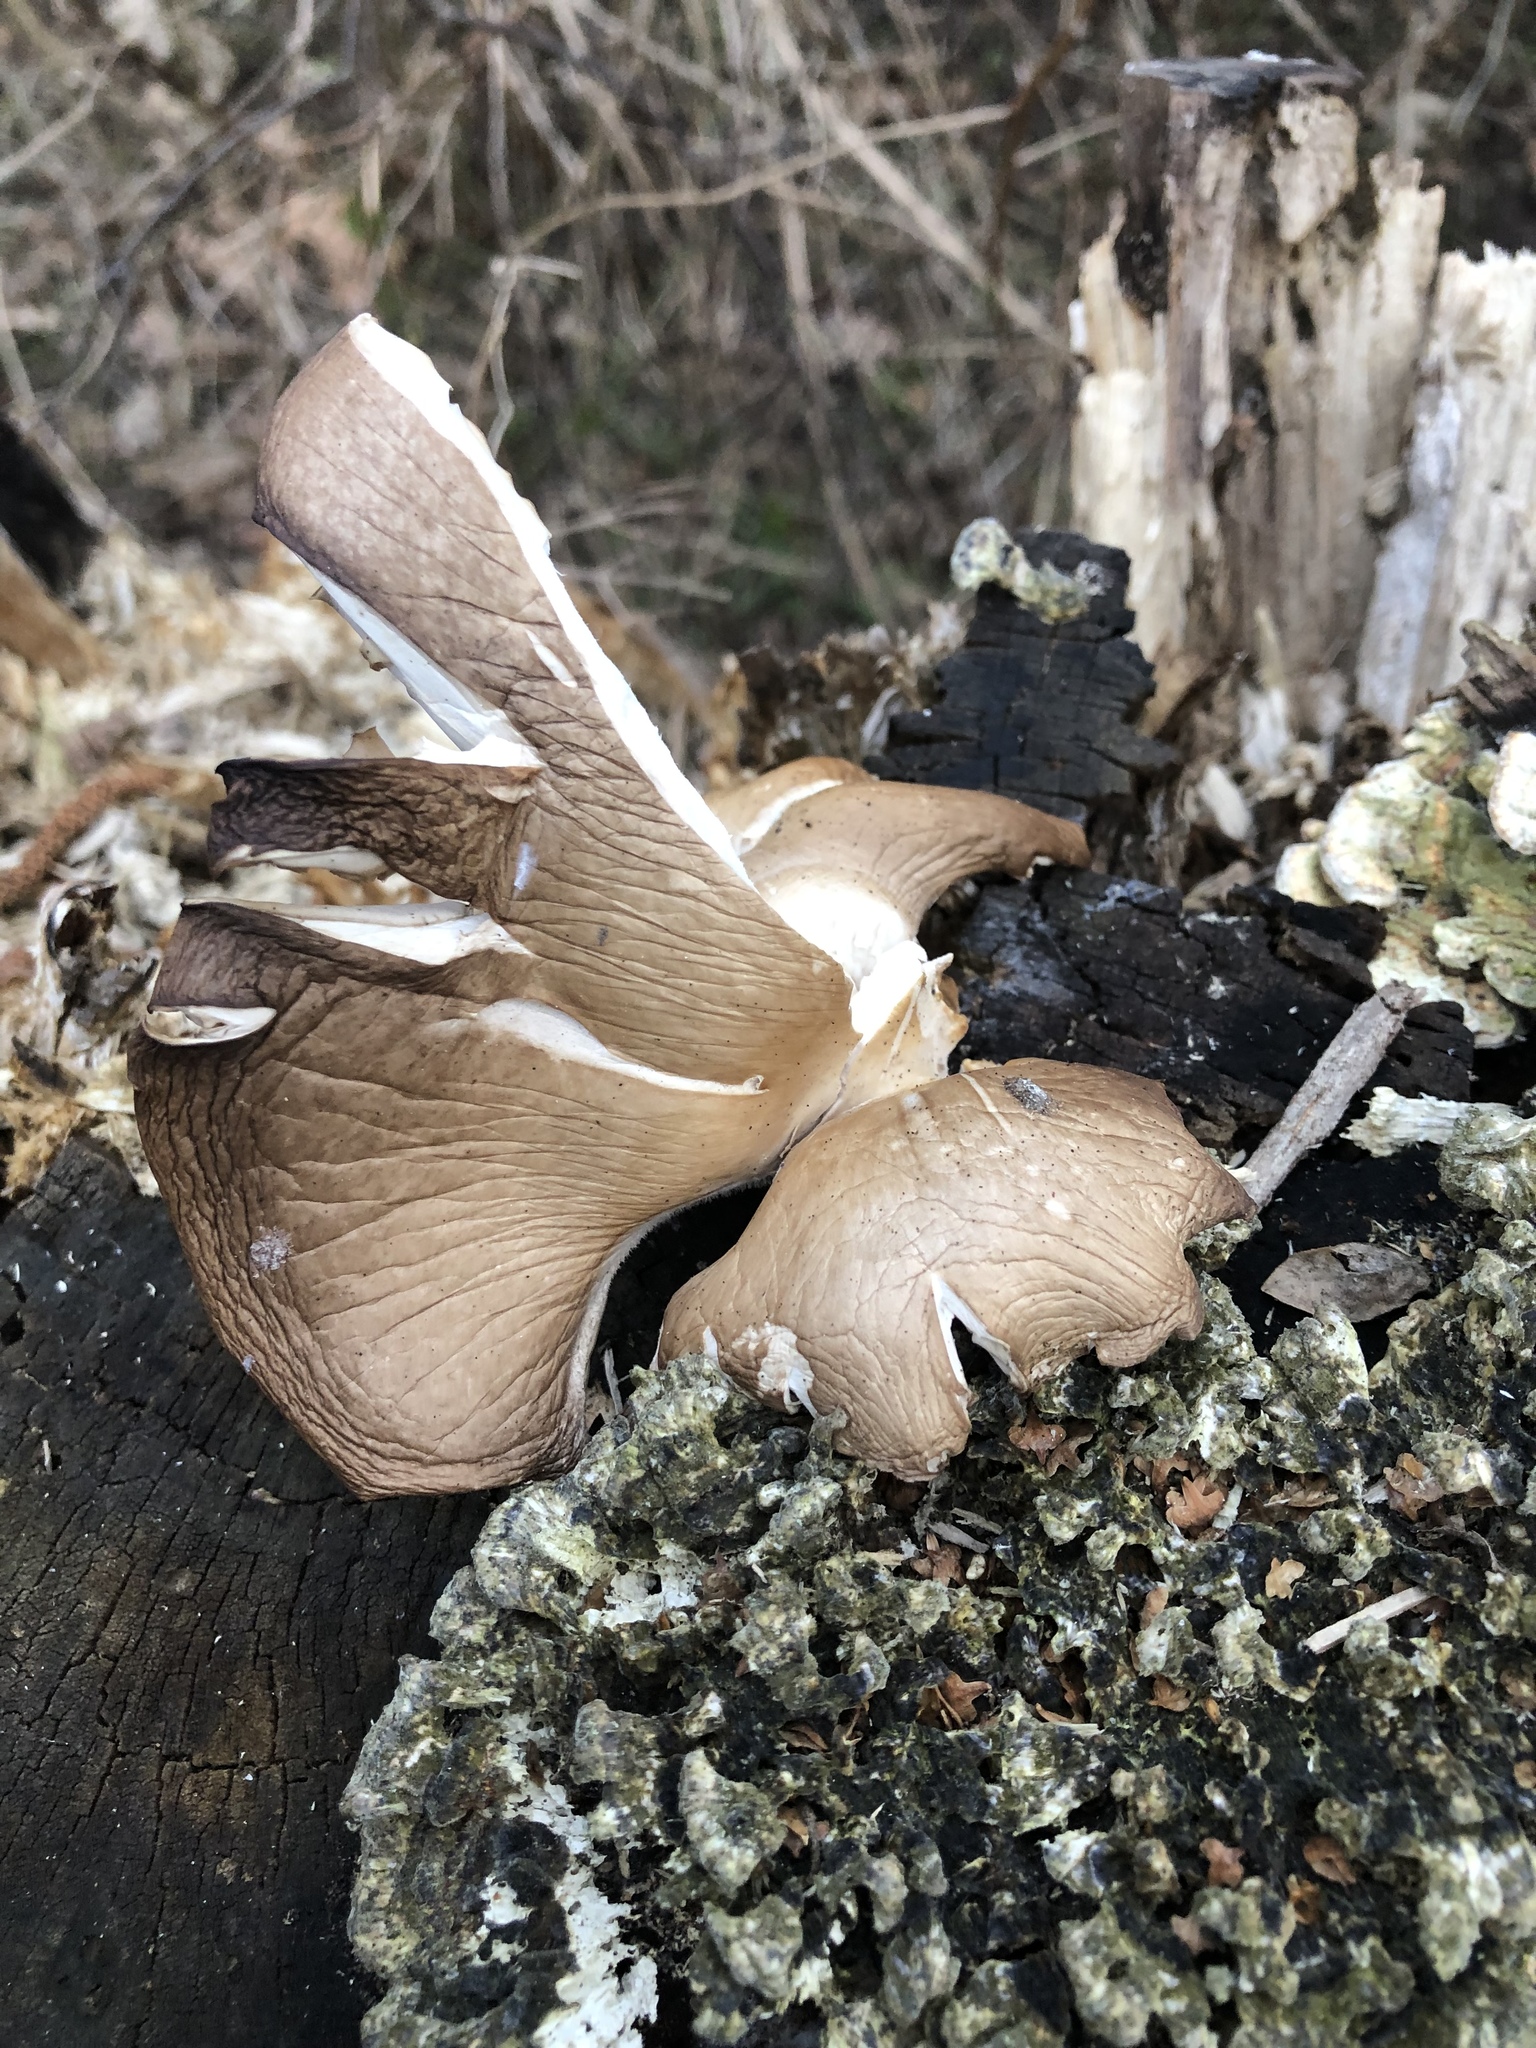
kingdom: Fungi
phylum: Basidiomycota
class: Agaricomycetes
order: Agaricales
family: Pleurotaceae
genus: Pleurotus
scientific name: Pleurotus ostreatus
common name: Oyster mushroom
